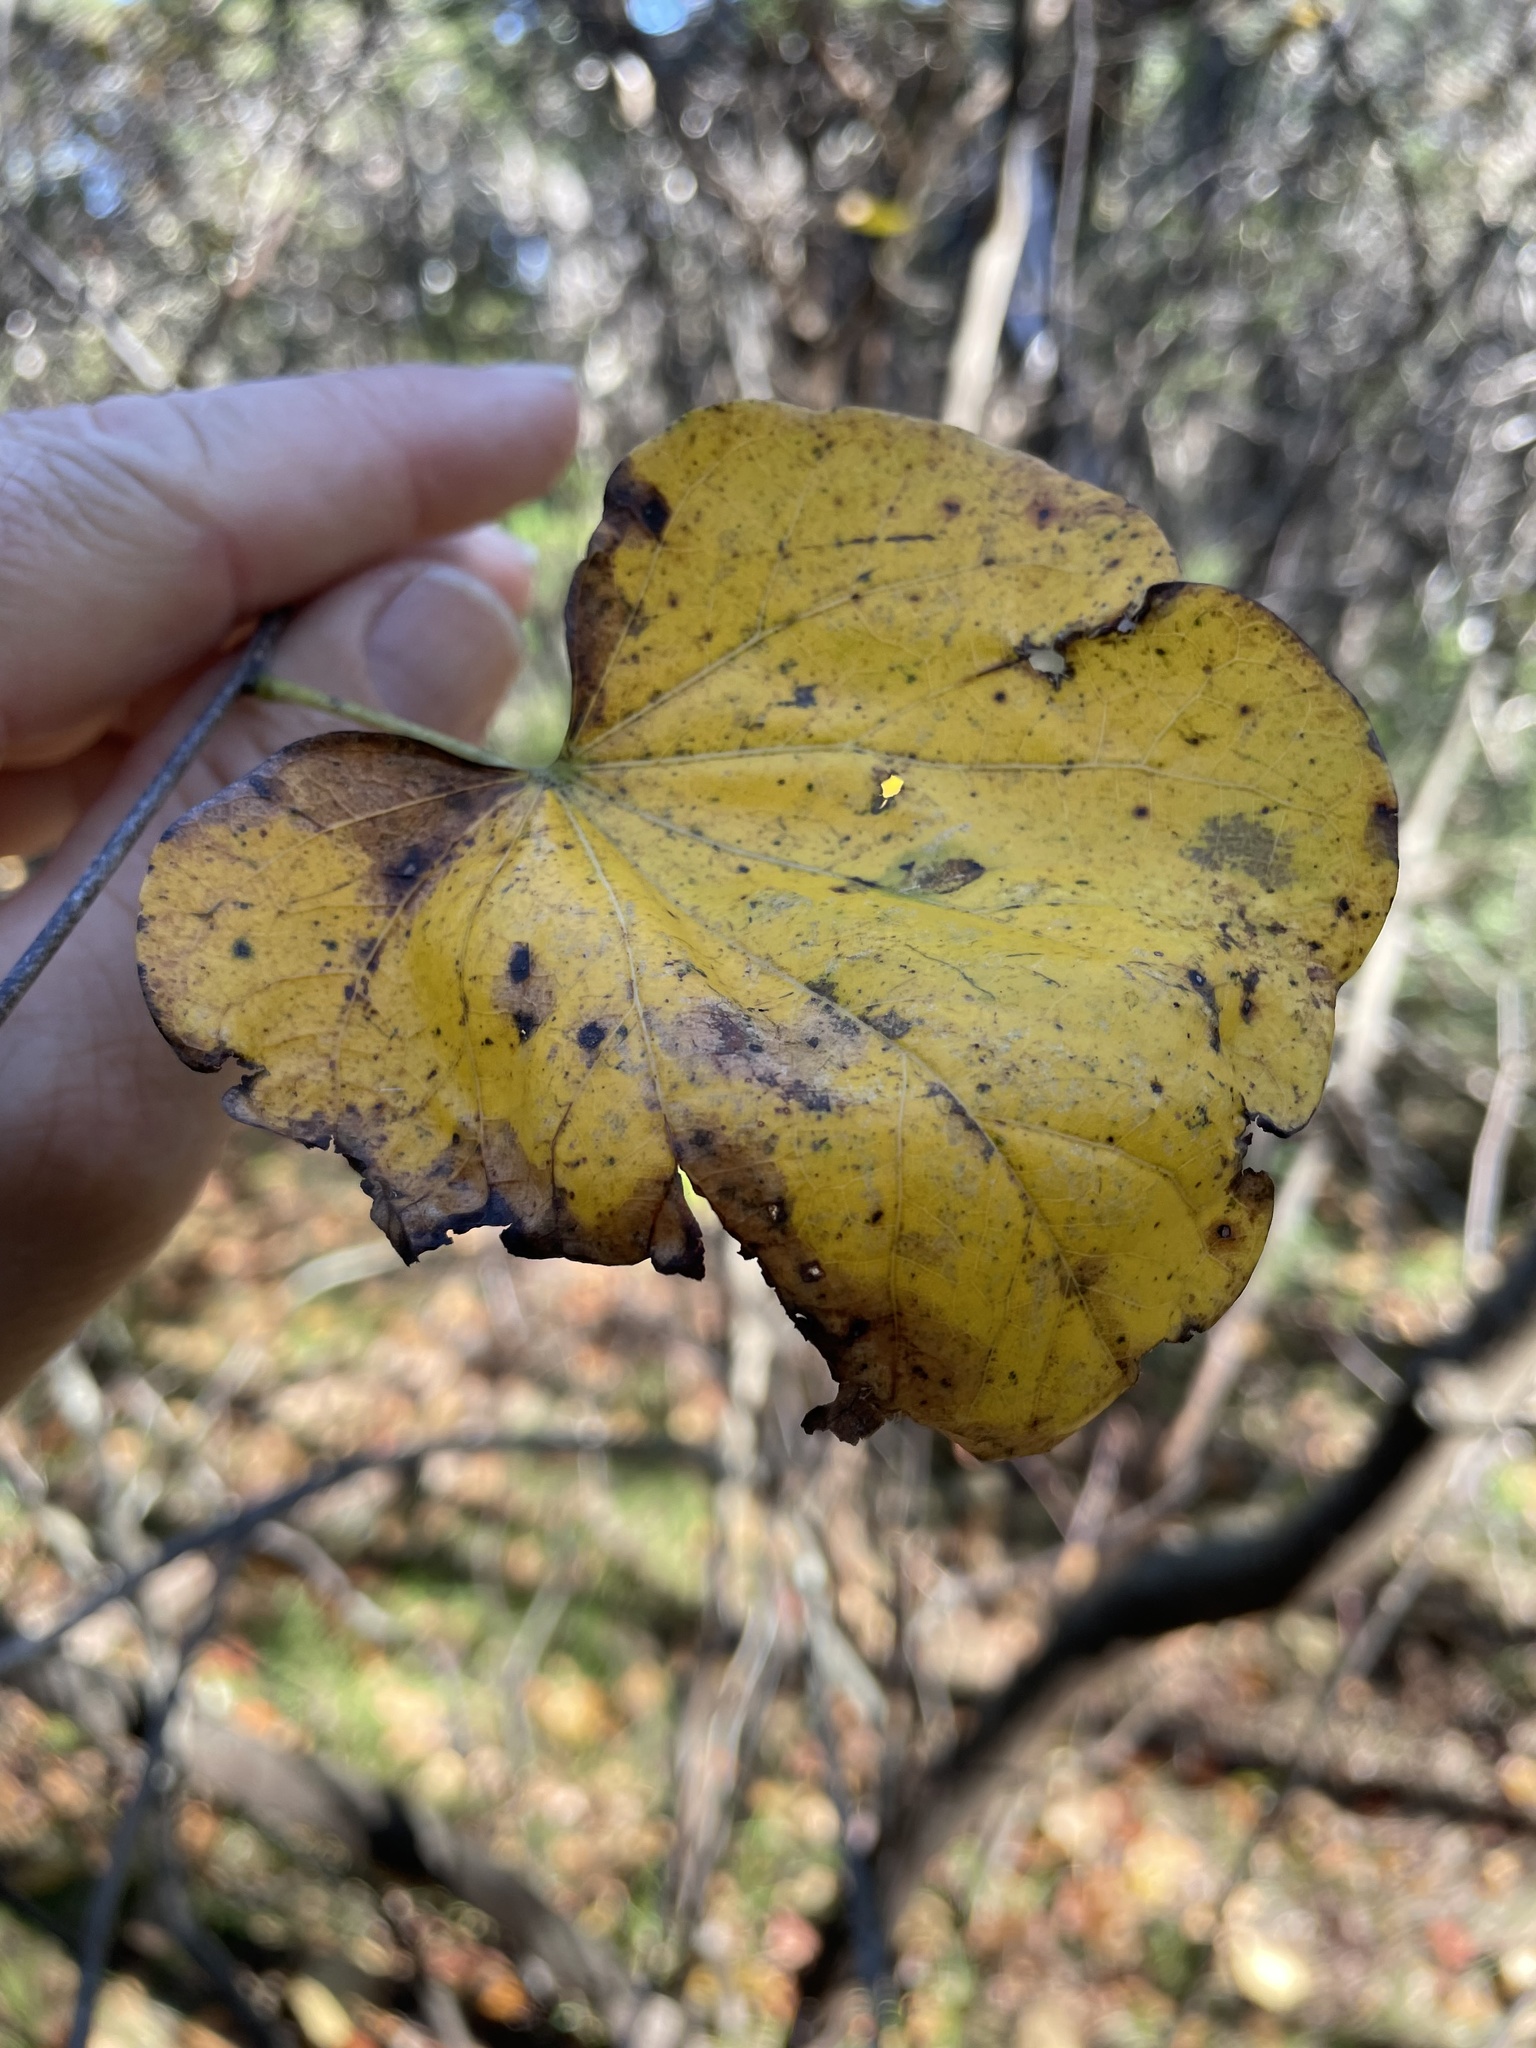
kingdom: Plantae
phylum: Tracheophyta
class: Magnoliopsida
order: Fabales
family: Fabaceae
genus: Cercis
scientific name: Cercis canadensis
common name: Eastern redbud
